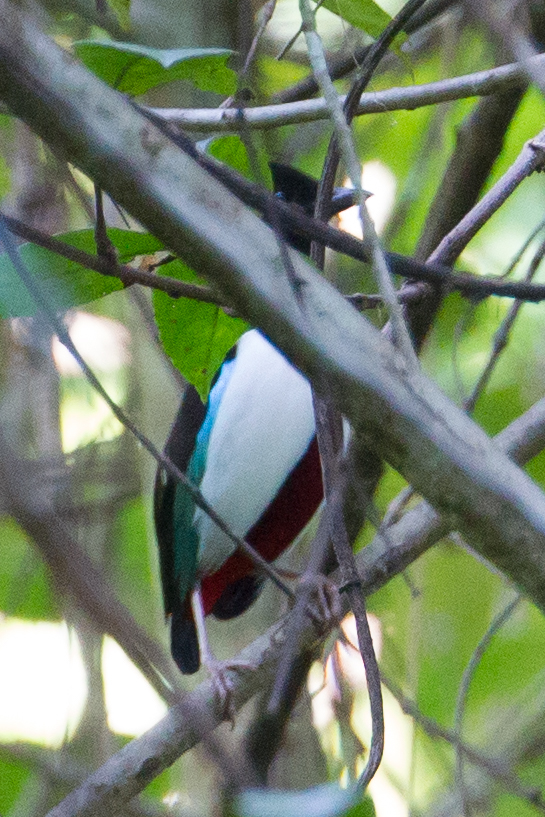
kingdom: Animalia
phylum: Chordata
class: Aves
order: Passeriformes
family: Pittidae
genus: Pitta
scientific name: Pitta maxima
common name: Ivory-breasted pitta
